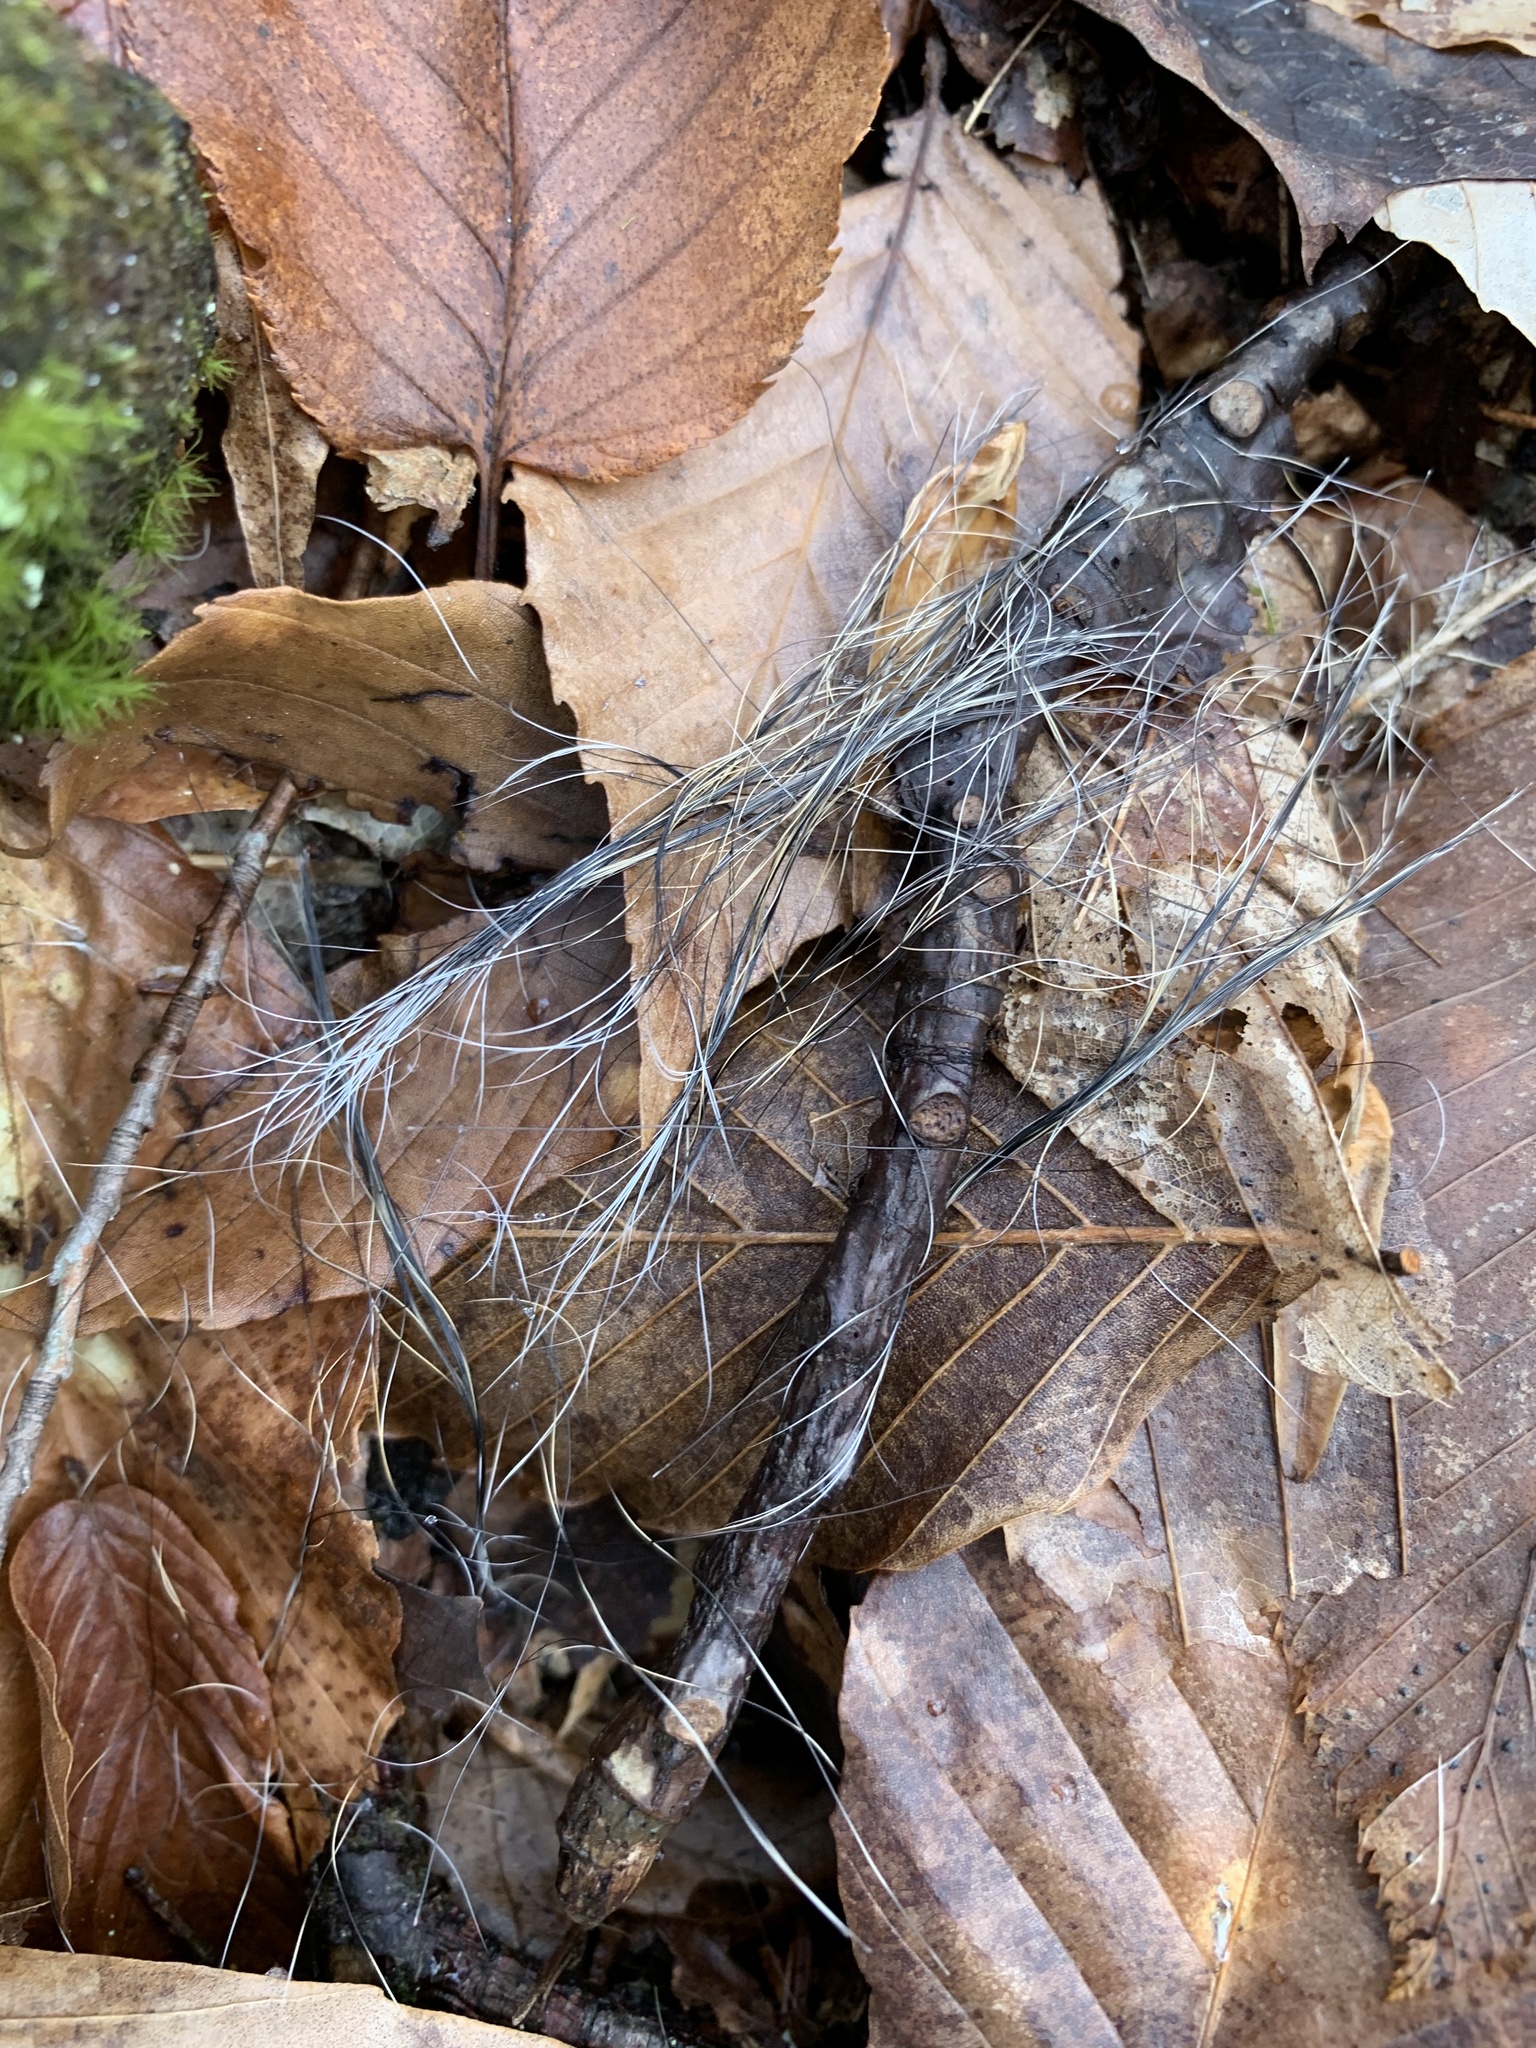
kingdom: Animalia
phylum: Chordata
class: Mammalia
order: Rodentia
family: Sciuridae
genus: Sciurus
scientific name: Sciurus carolinensis
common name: Eastern gray squirrel
